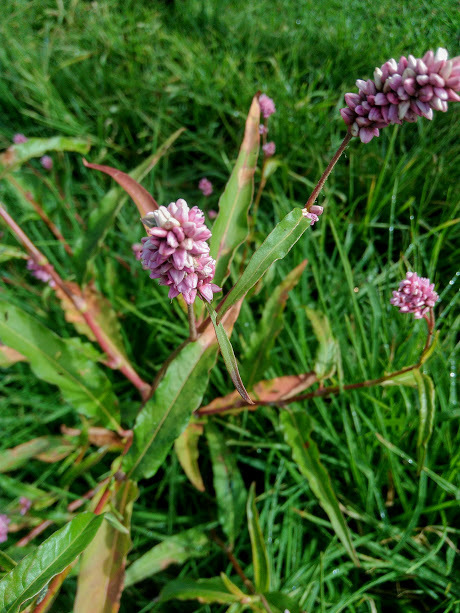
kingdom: Plantae
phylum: Tracheophyta
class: Magnoliopsida
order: Caryophyllales
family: Polygonaceae
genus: Persicaria
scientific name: Persicaria maculosa
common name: Redshank
